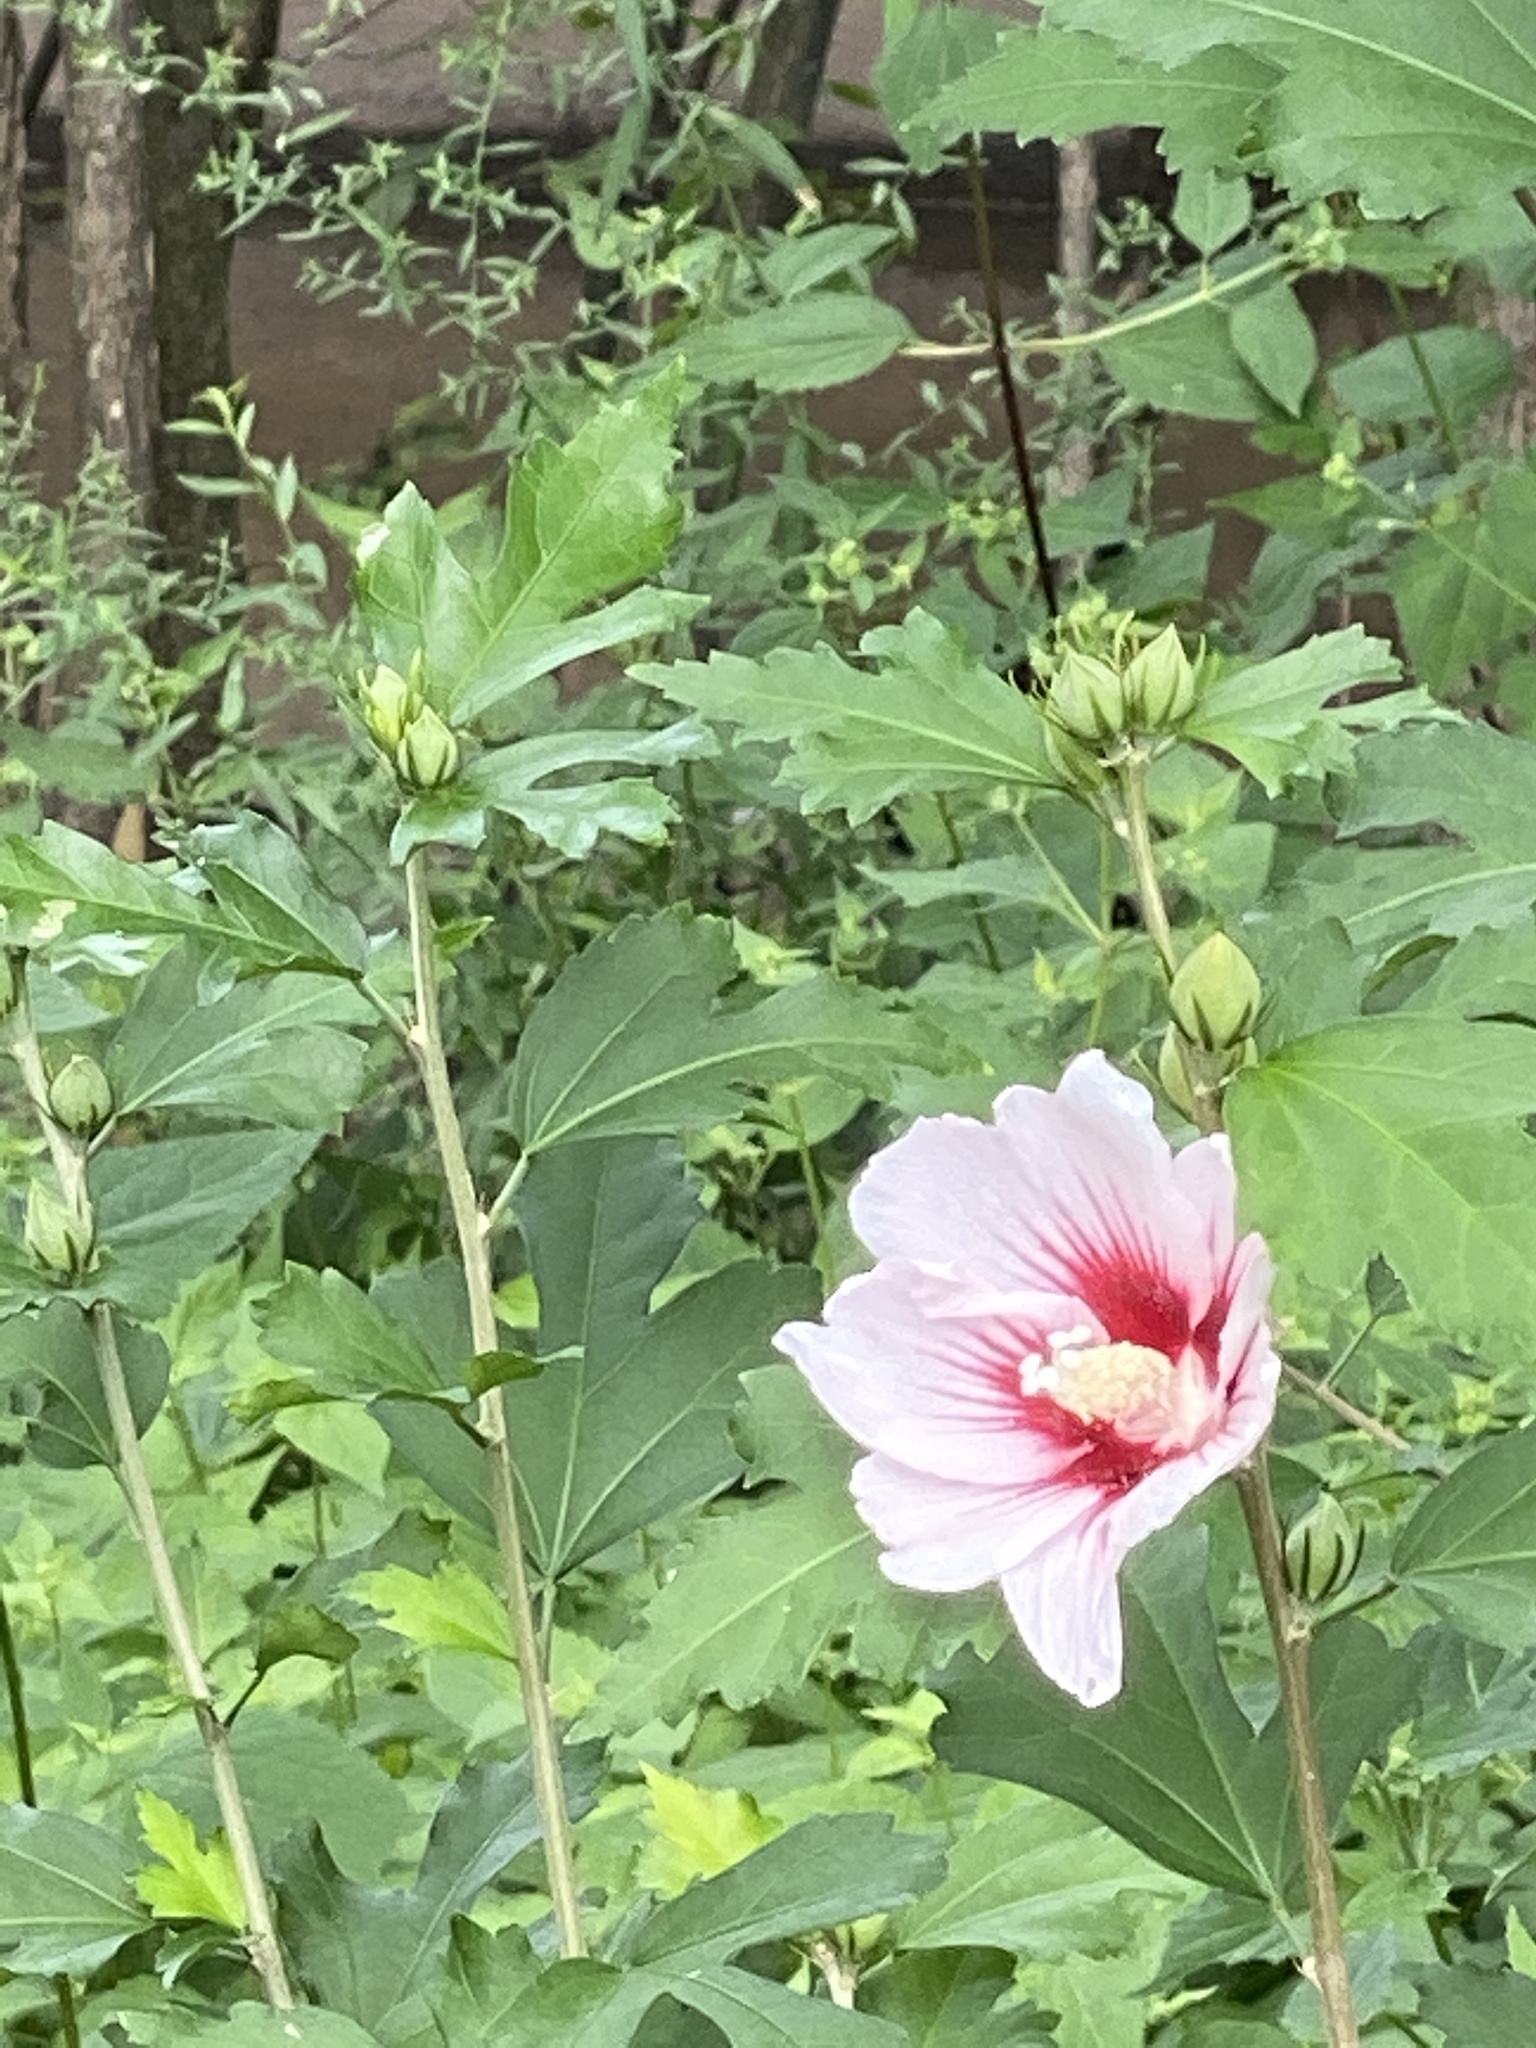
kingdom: Plantae
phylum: Tracheophyta
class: Magnoliopsida
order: Malvales
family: Malvaceae
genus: Hibiscus
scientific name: Hibiscus syriacus
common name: Syrian ketmia
